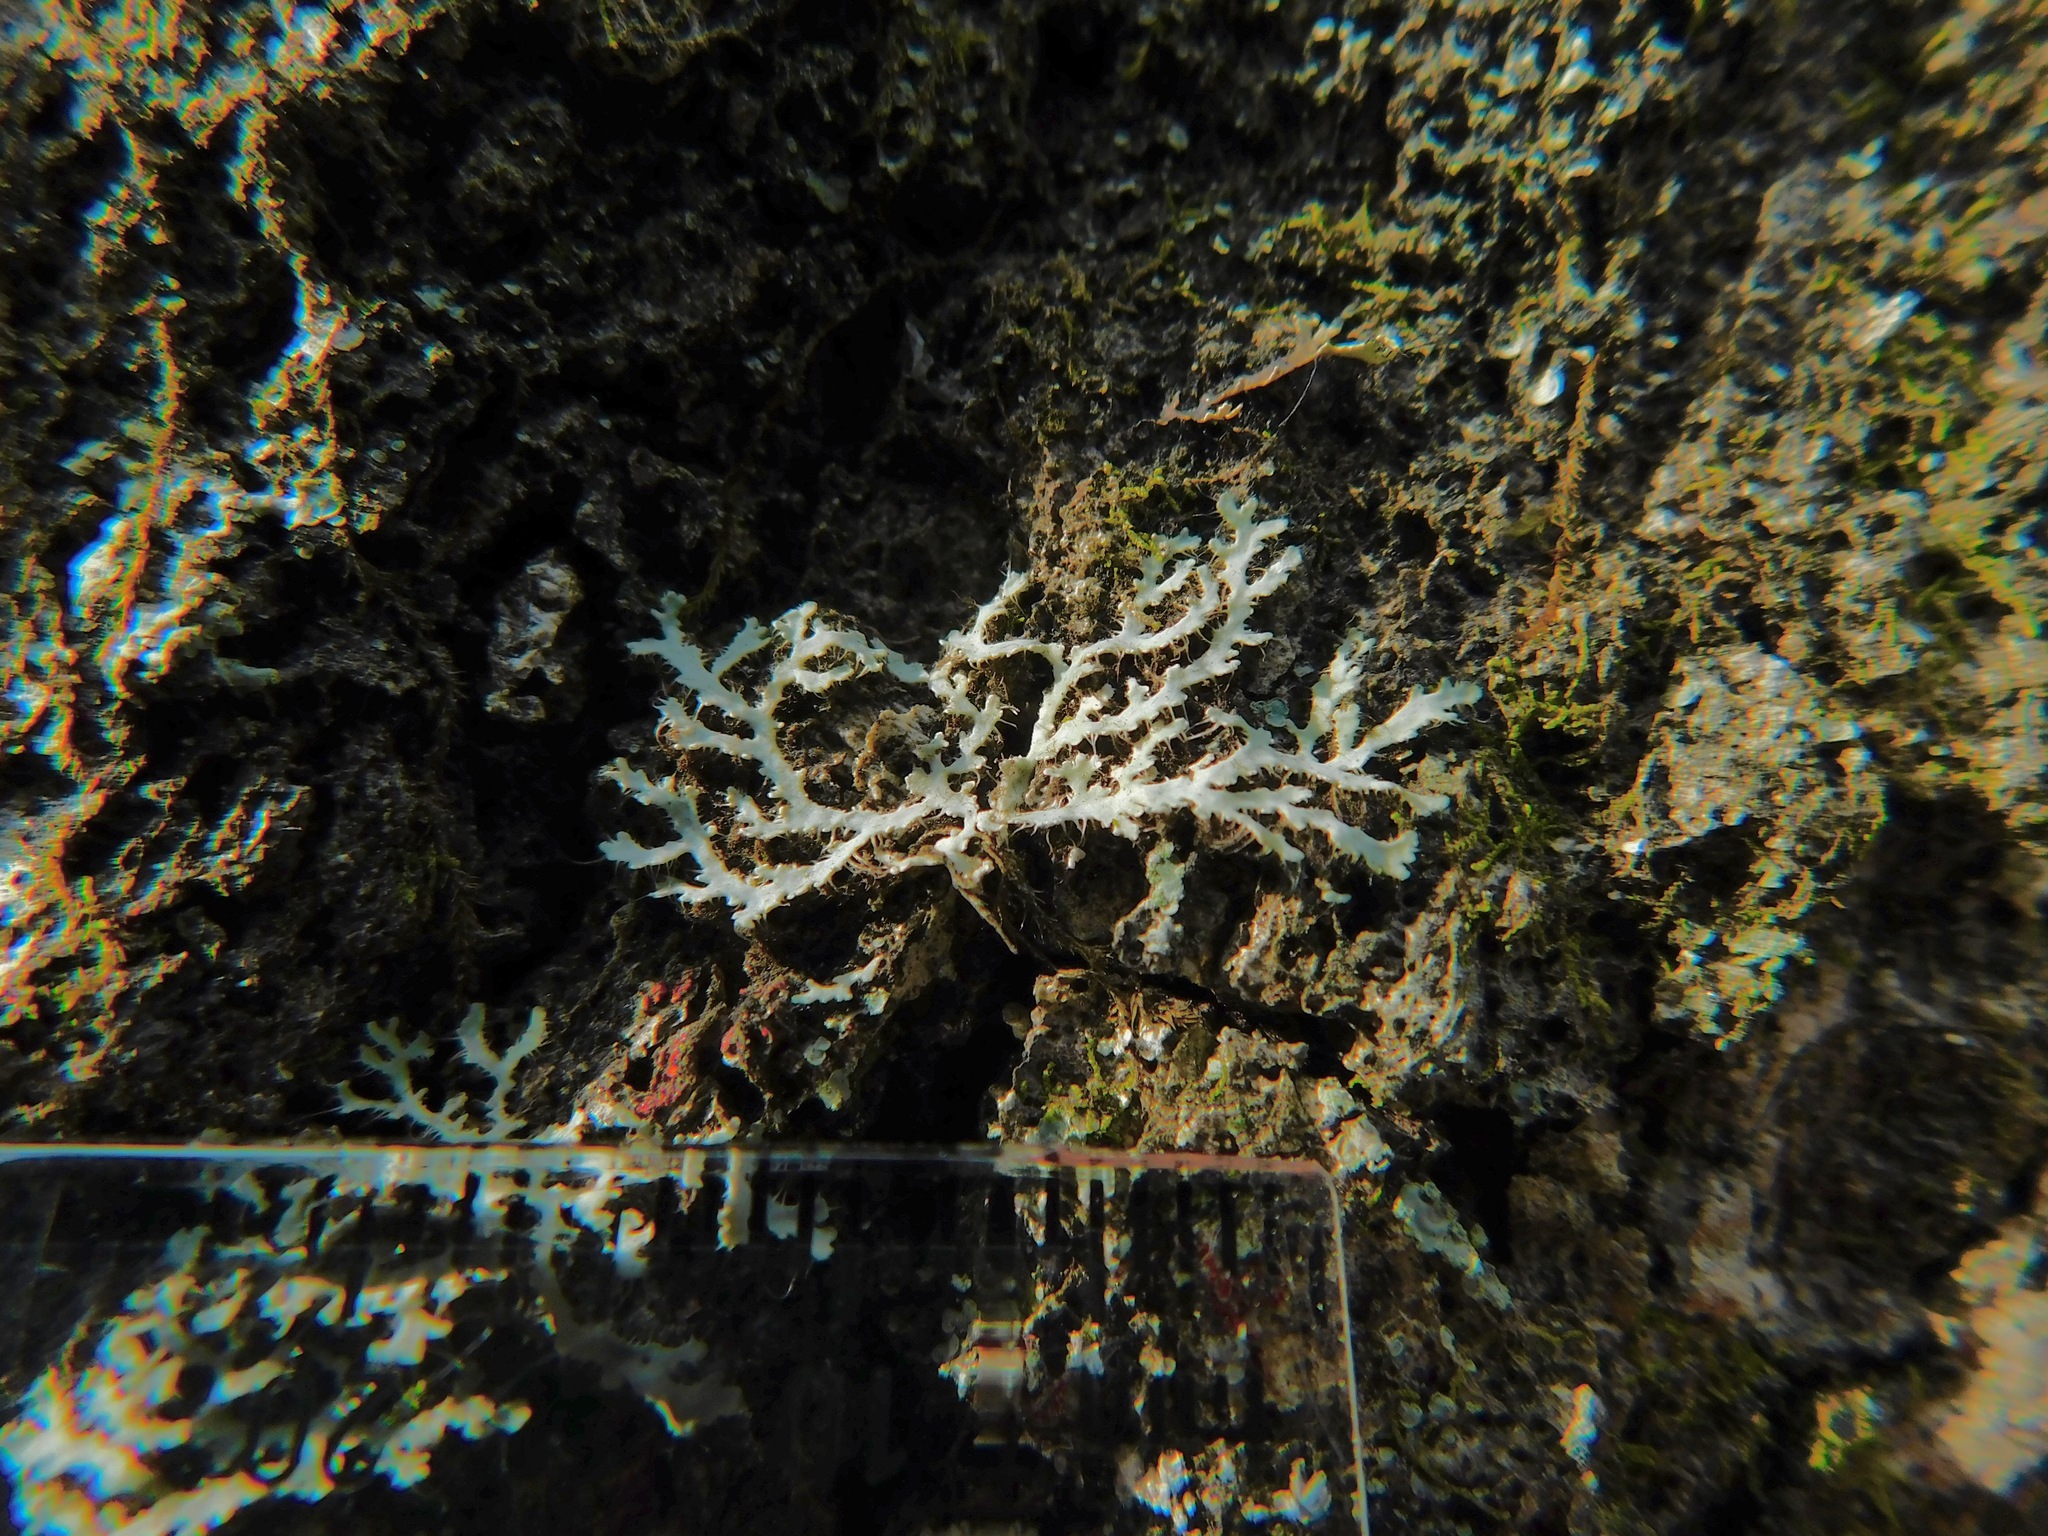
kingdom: Fungi
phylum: Ascomycota
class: Lecanoromycetes
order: Caliciales
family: Physciaceae
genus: Leucodermia
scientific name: Leucodermia appalachensis
